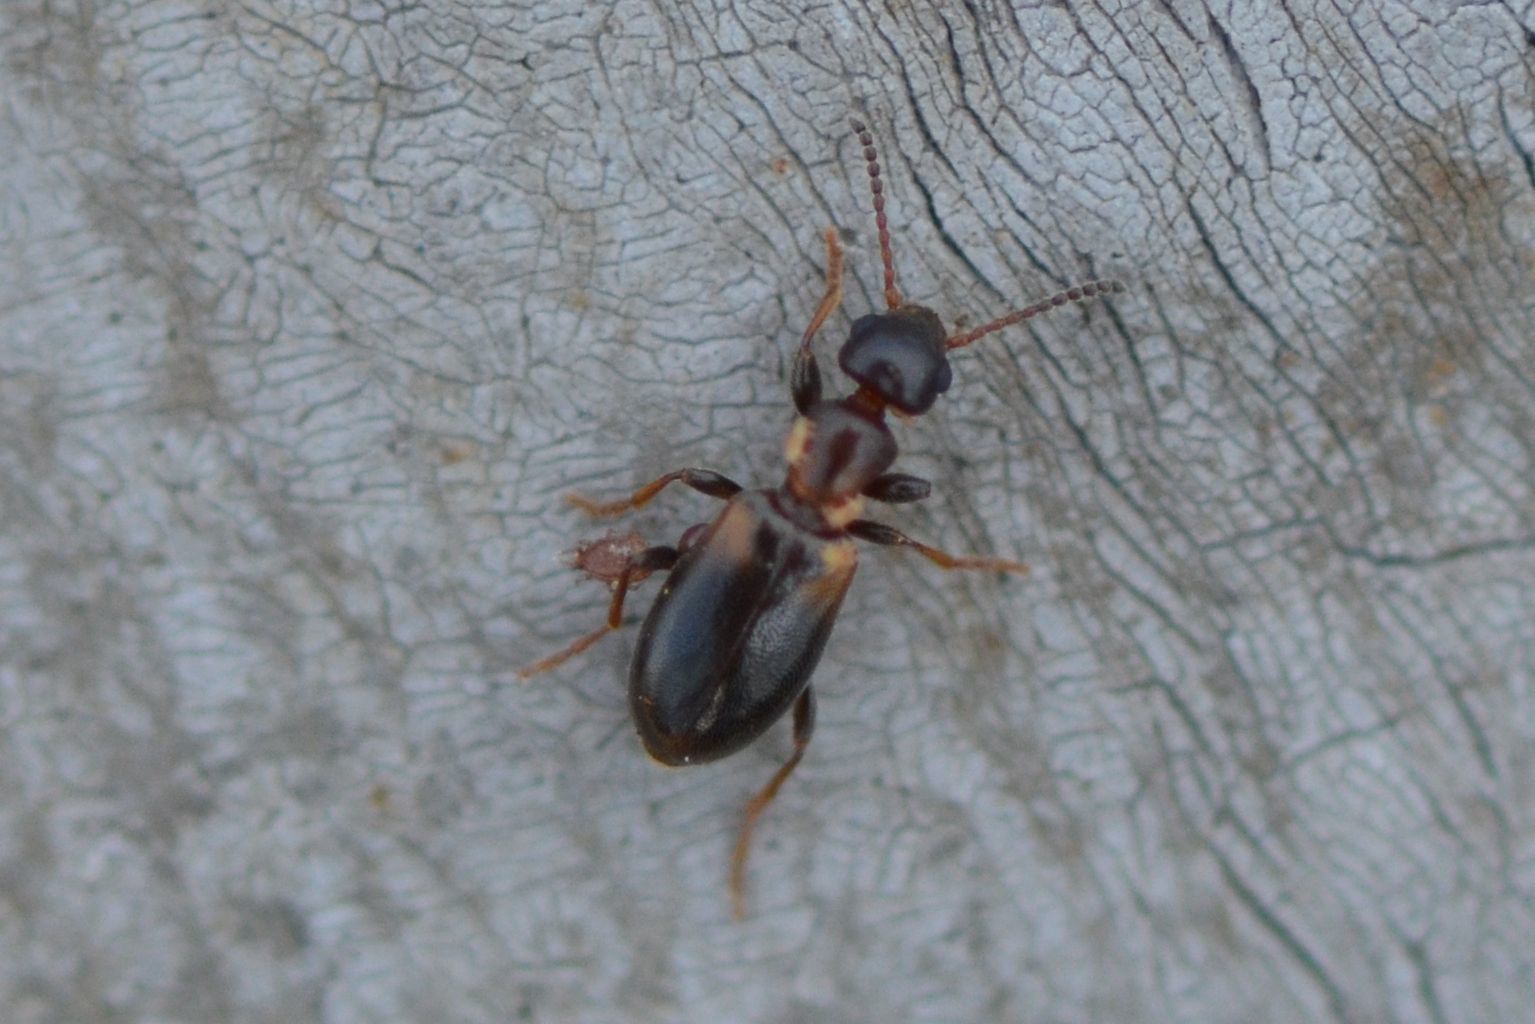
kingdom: Animalia
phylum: Arthropoda
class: Insecta
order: Coleoptera
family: Anthicidae
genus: Omonadus
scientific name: Omonadus floralis
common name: Narrownecked grain beetle
